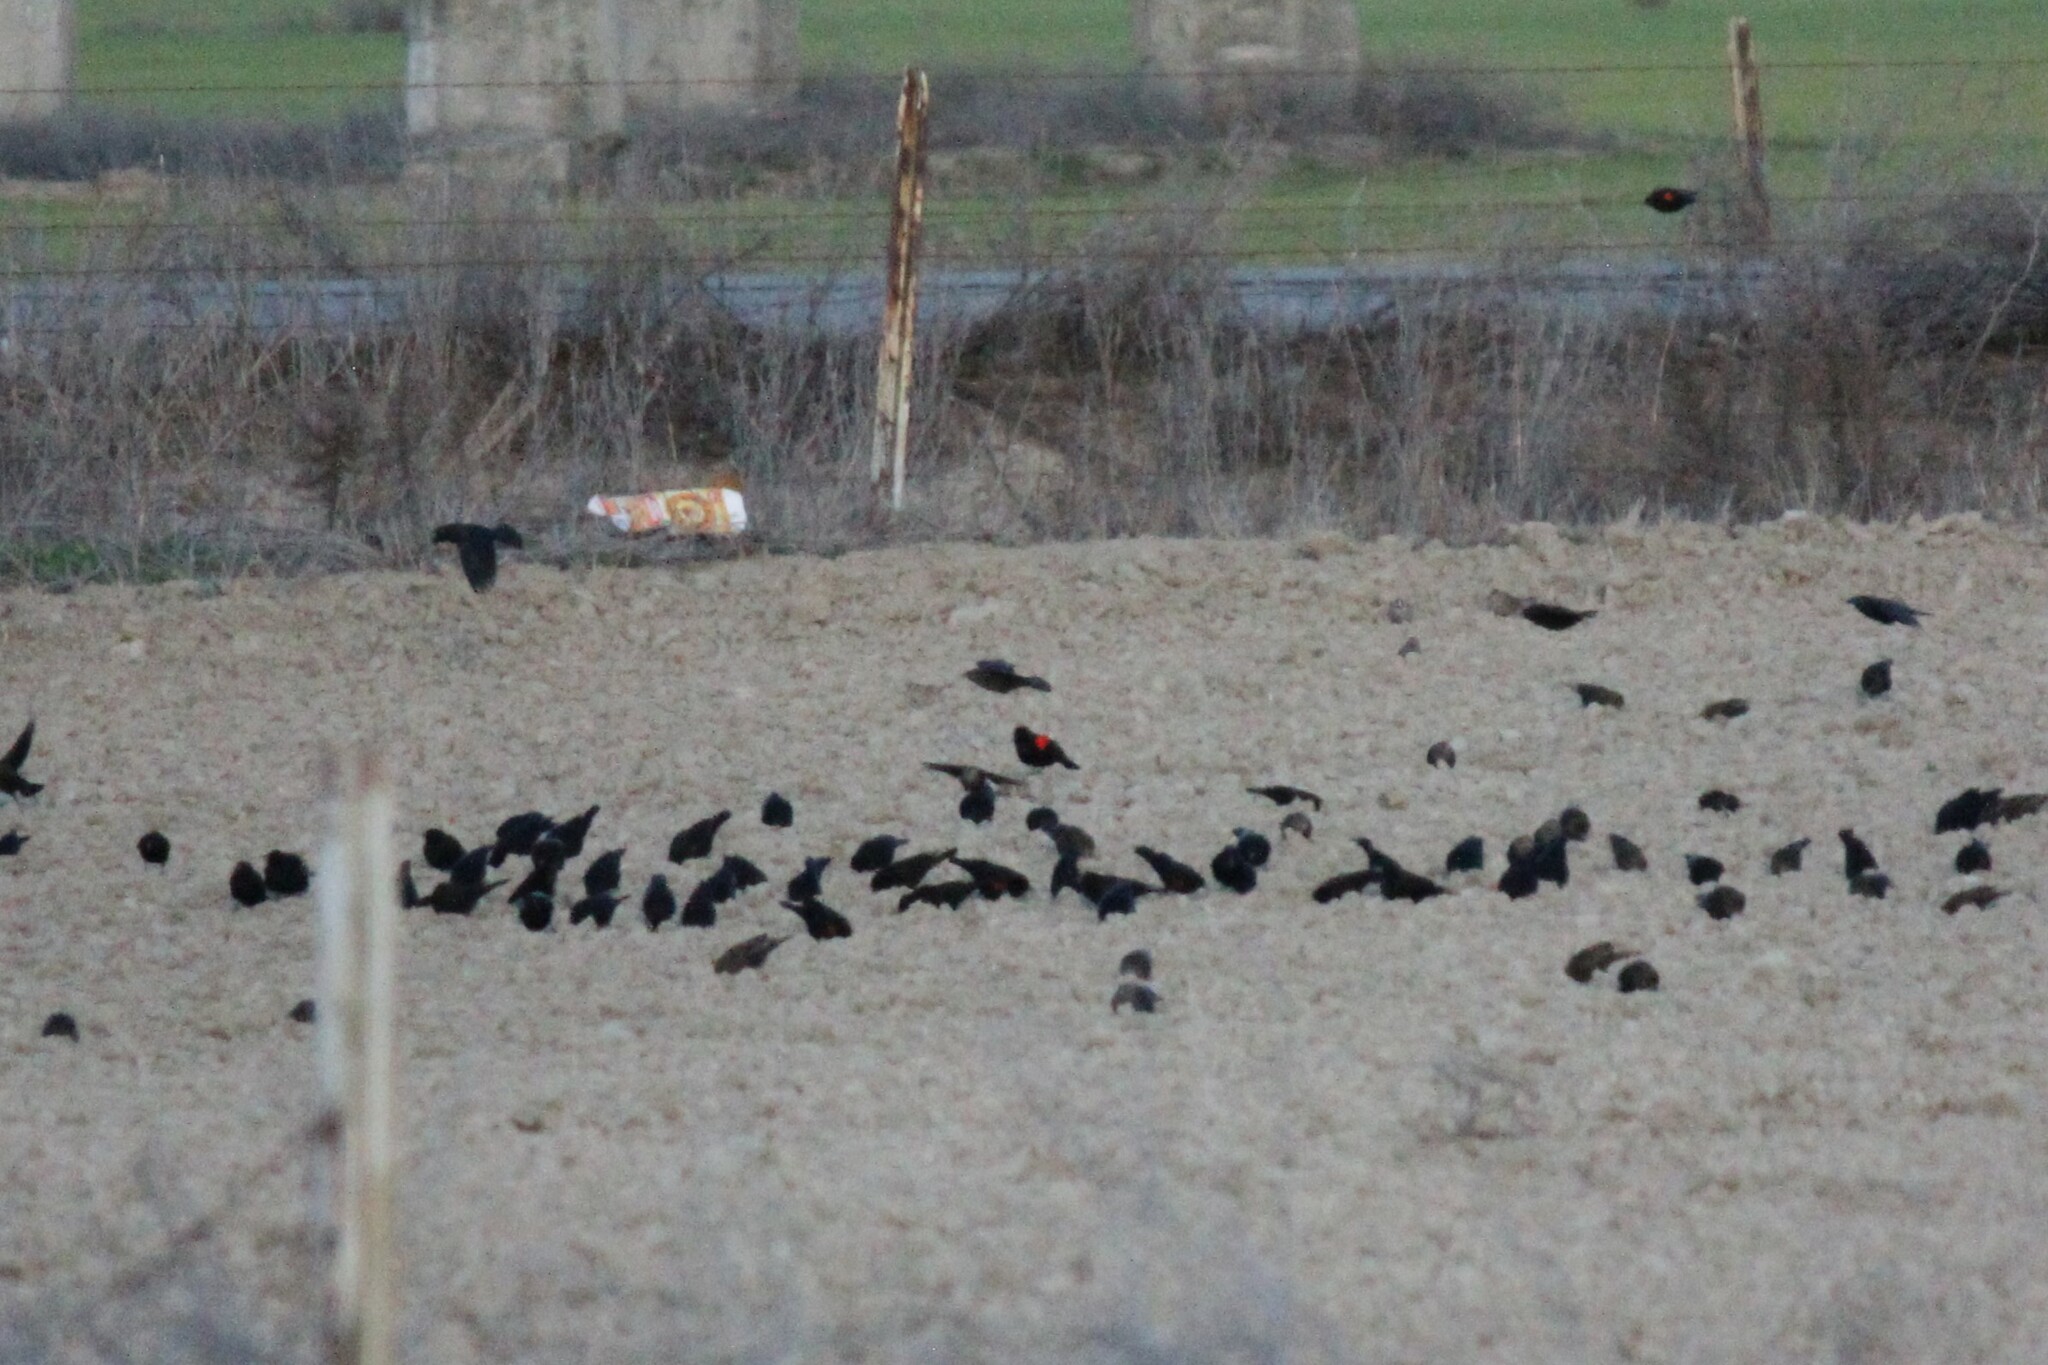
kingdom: Animalia
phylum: Chordata
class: Aves
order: Passeriformes
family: Icteridae
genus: Agelaius
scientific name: Agelaius phoeniceus
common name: Red-winged blackbird
